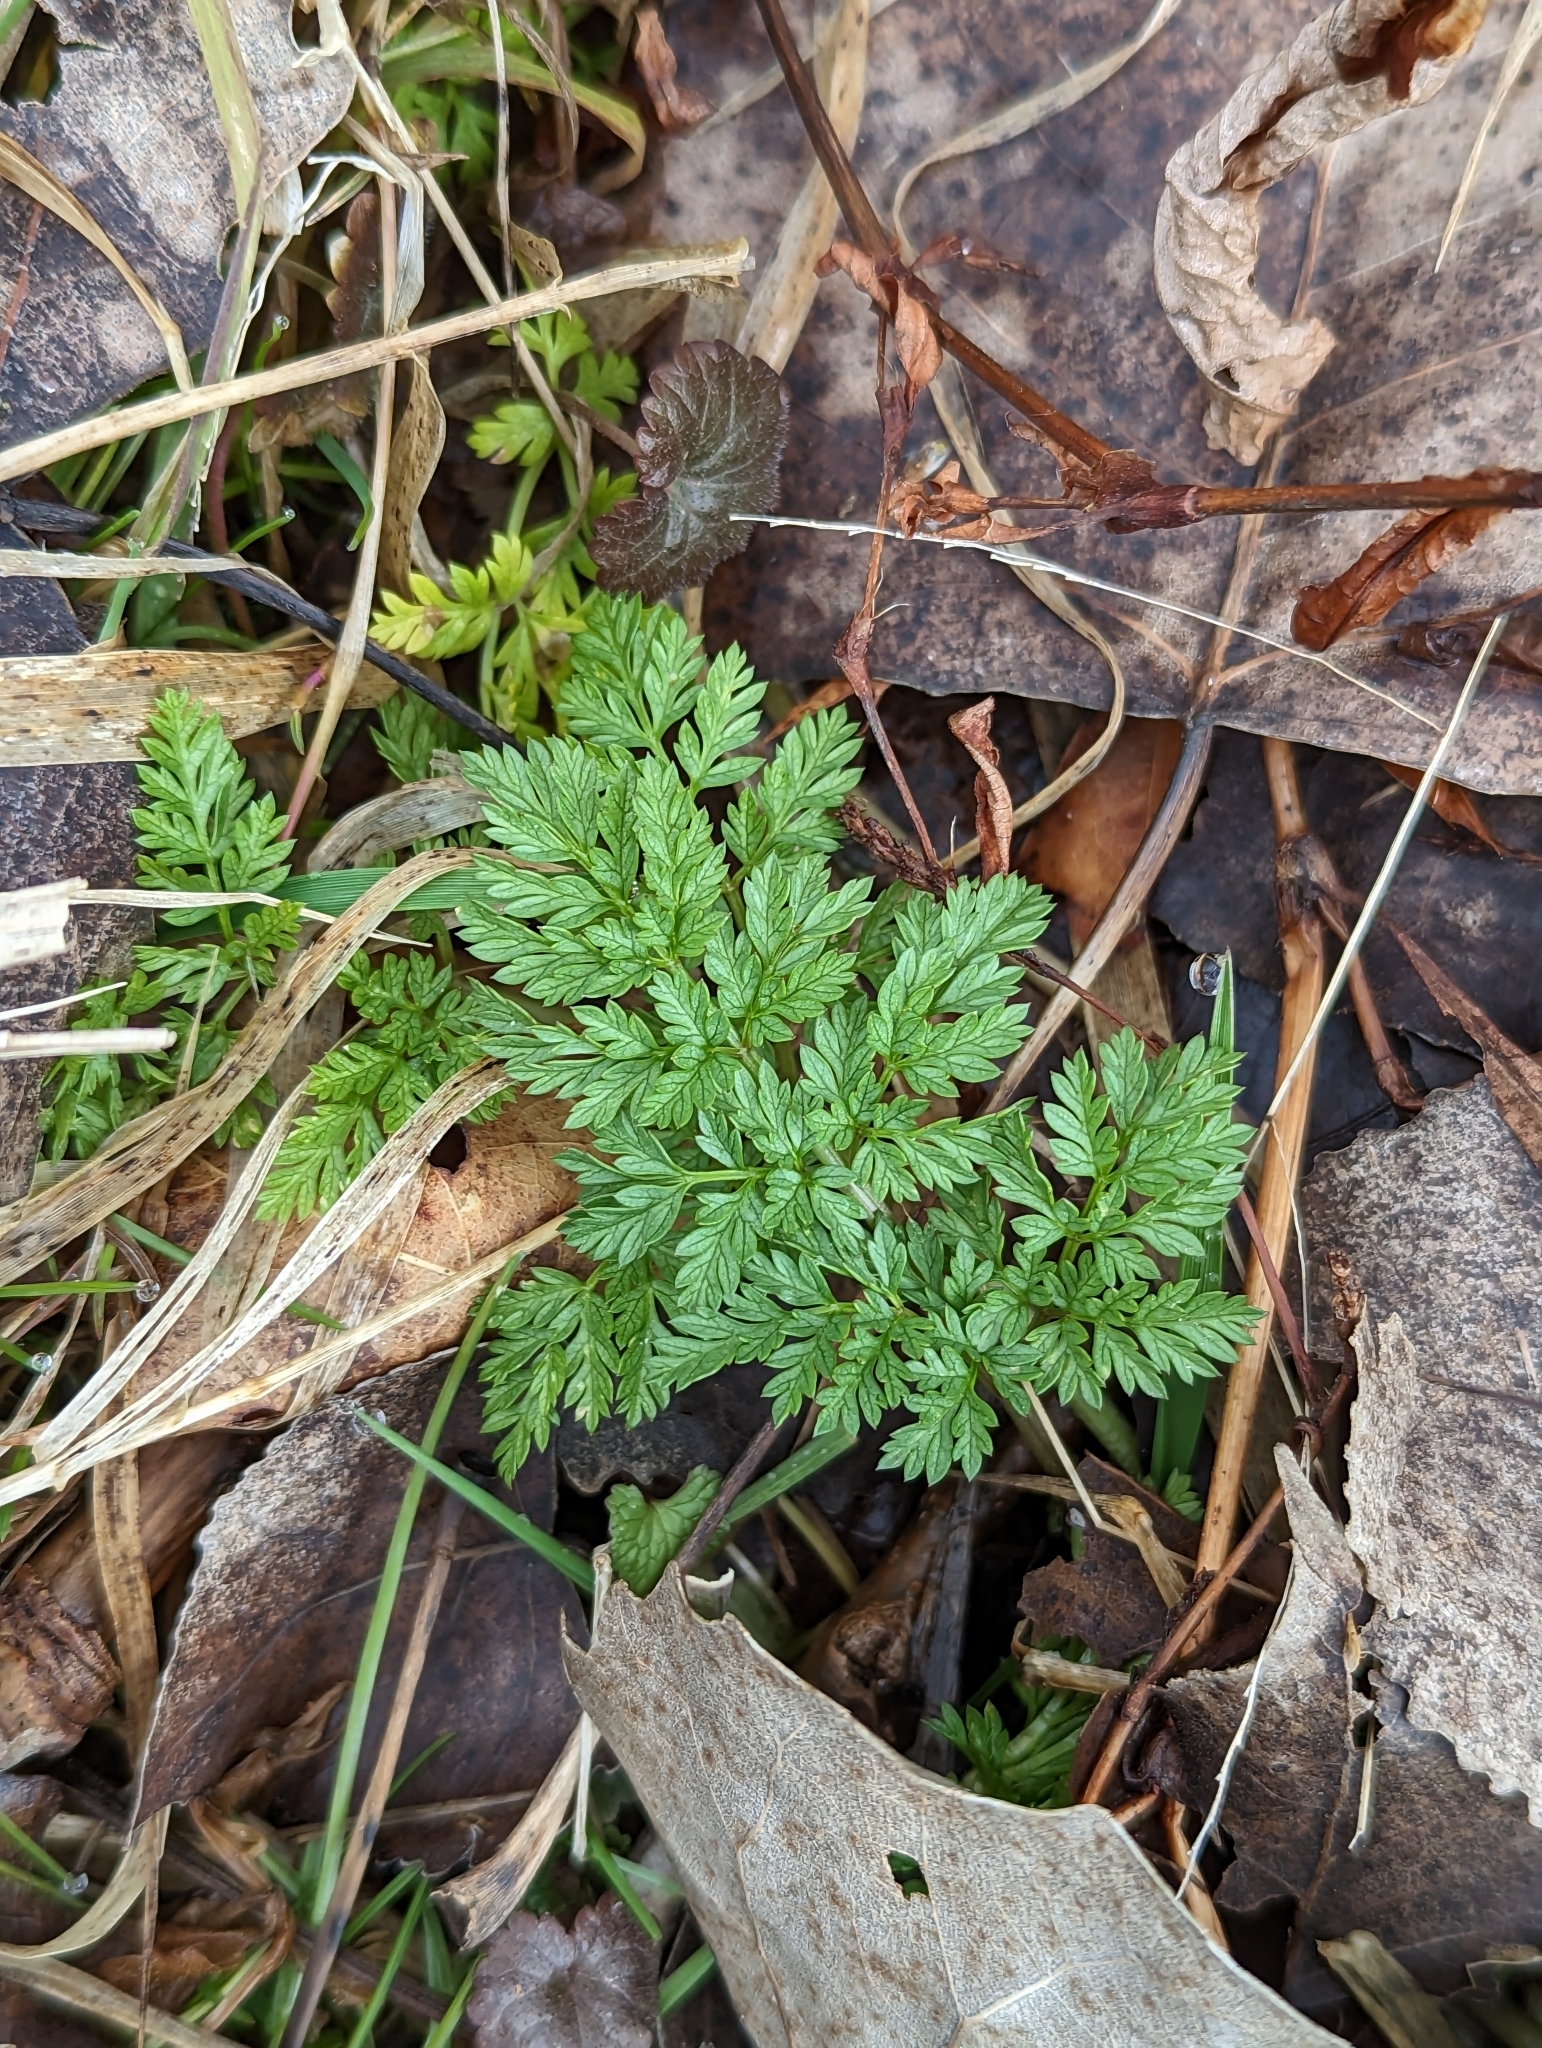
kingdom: Plantae
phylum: Tracheophyta
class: Magnoliopsida
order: Apiales
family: Apiaceae
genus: Conium
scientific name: Conium maculatum
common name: Hemlock
